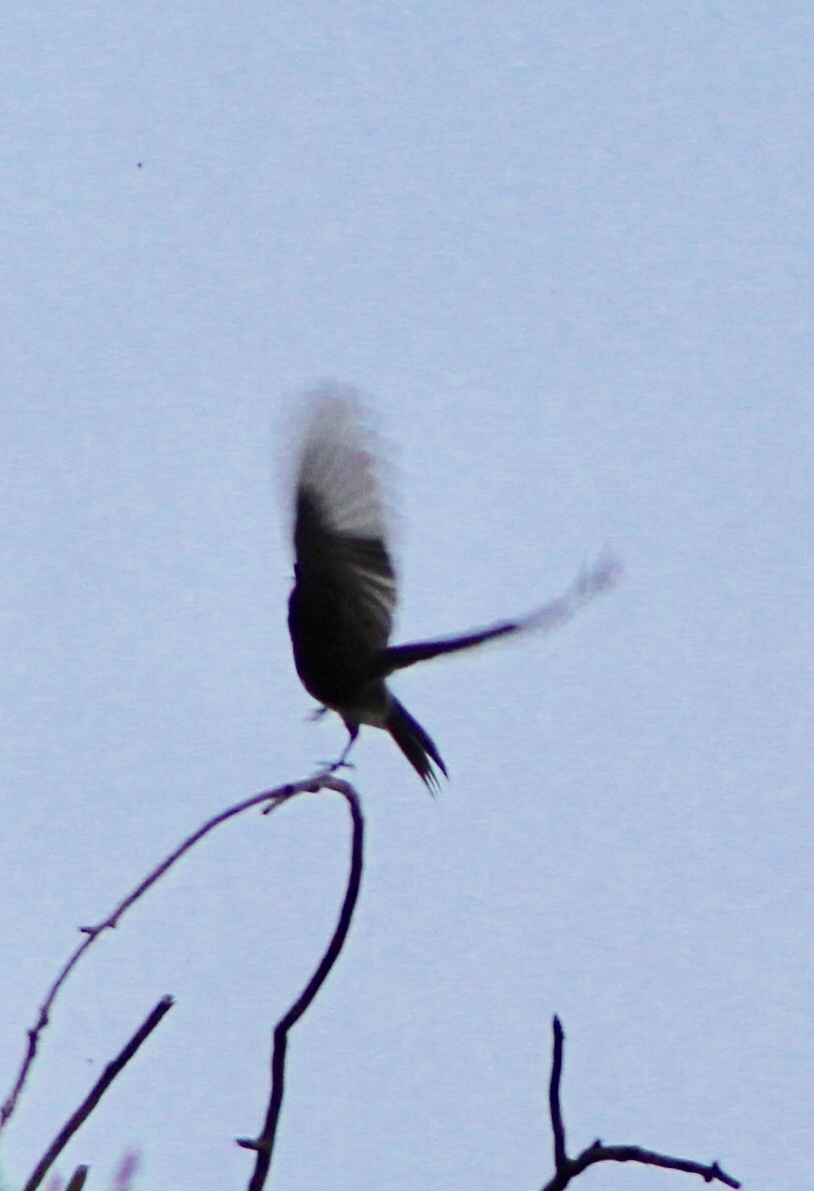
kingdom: Animalia
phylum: Chordata
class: Aves
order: Passeriformes
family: Tyrannidae
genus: Sayornis
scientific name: Sayornis nigricans
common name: Black phoebe
